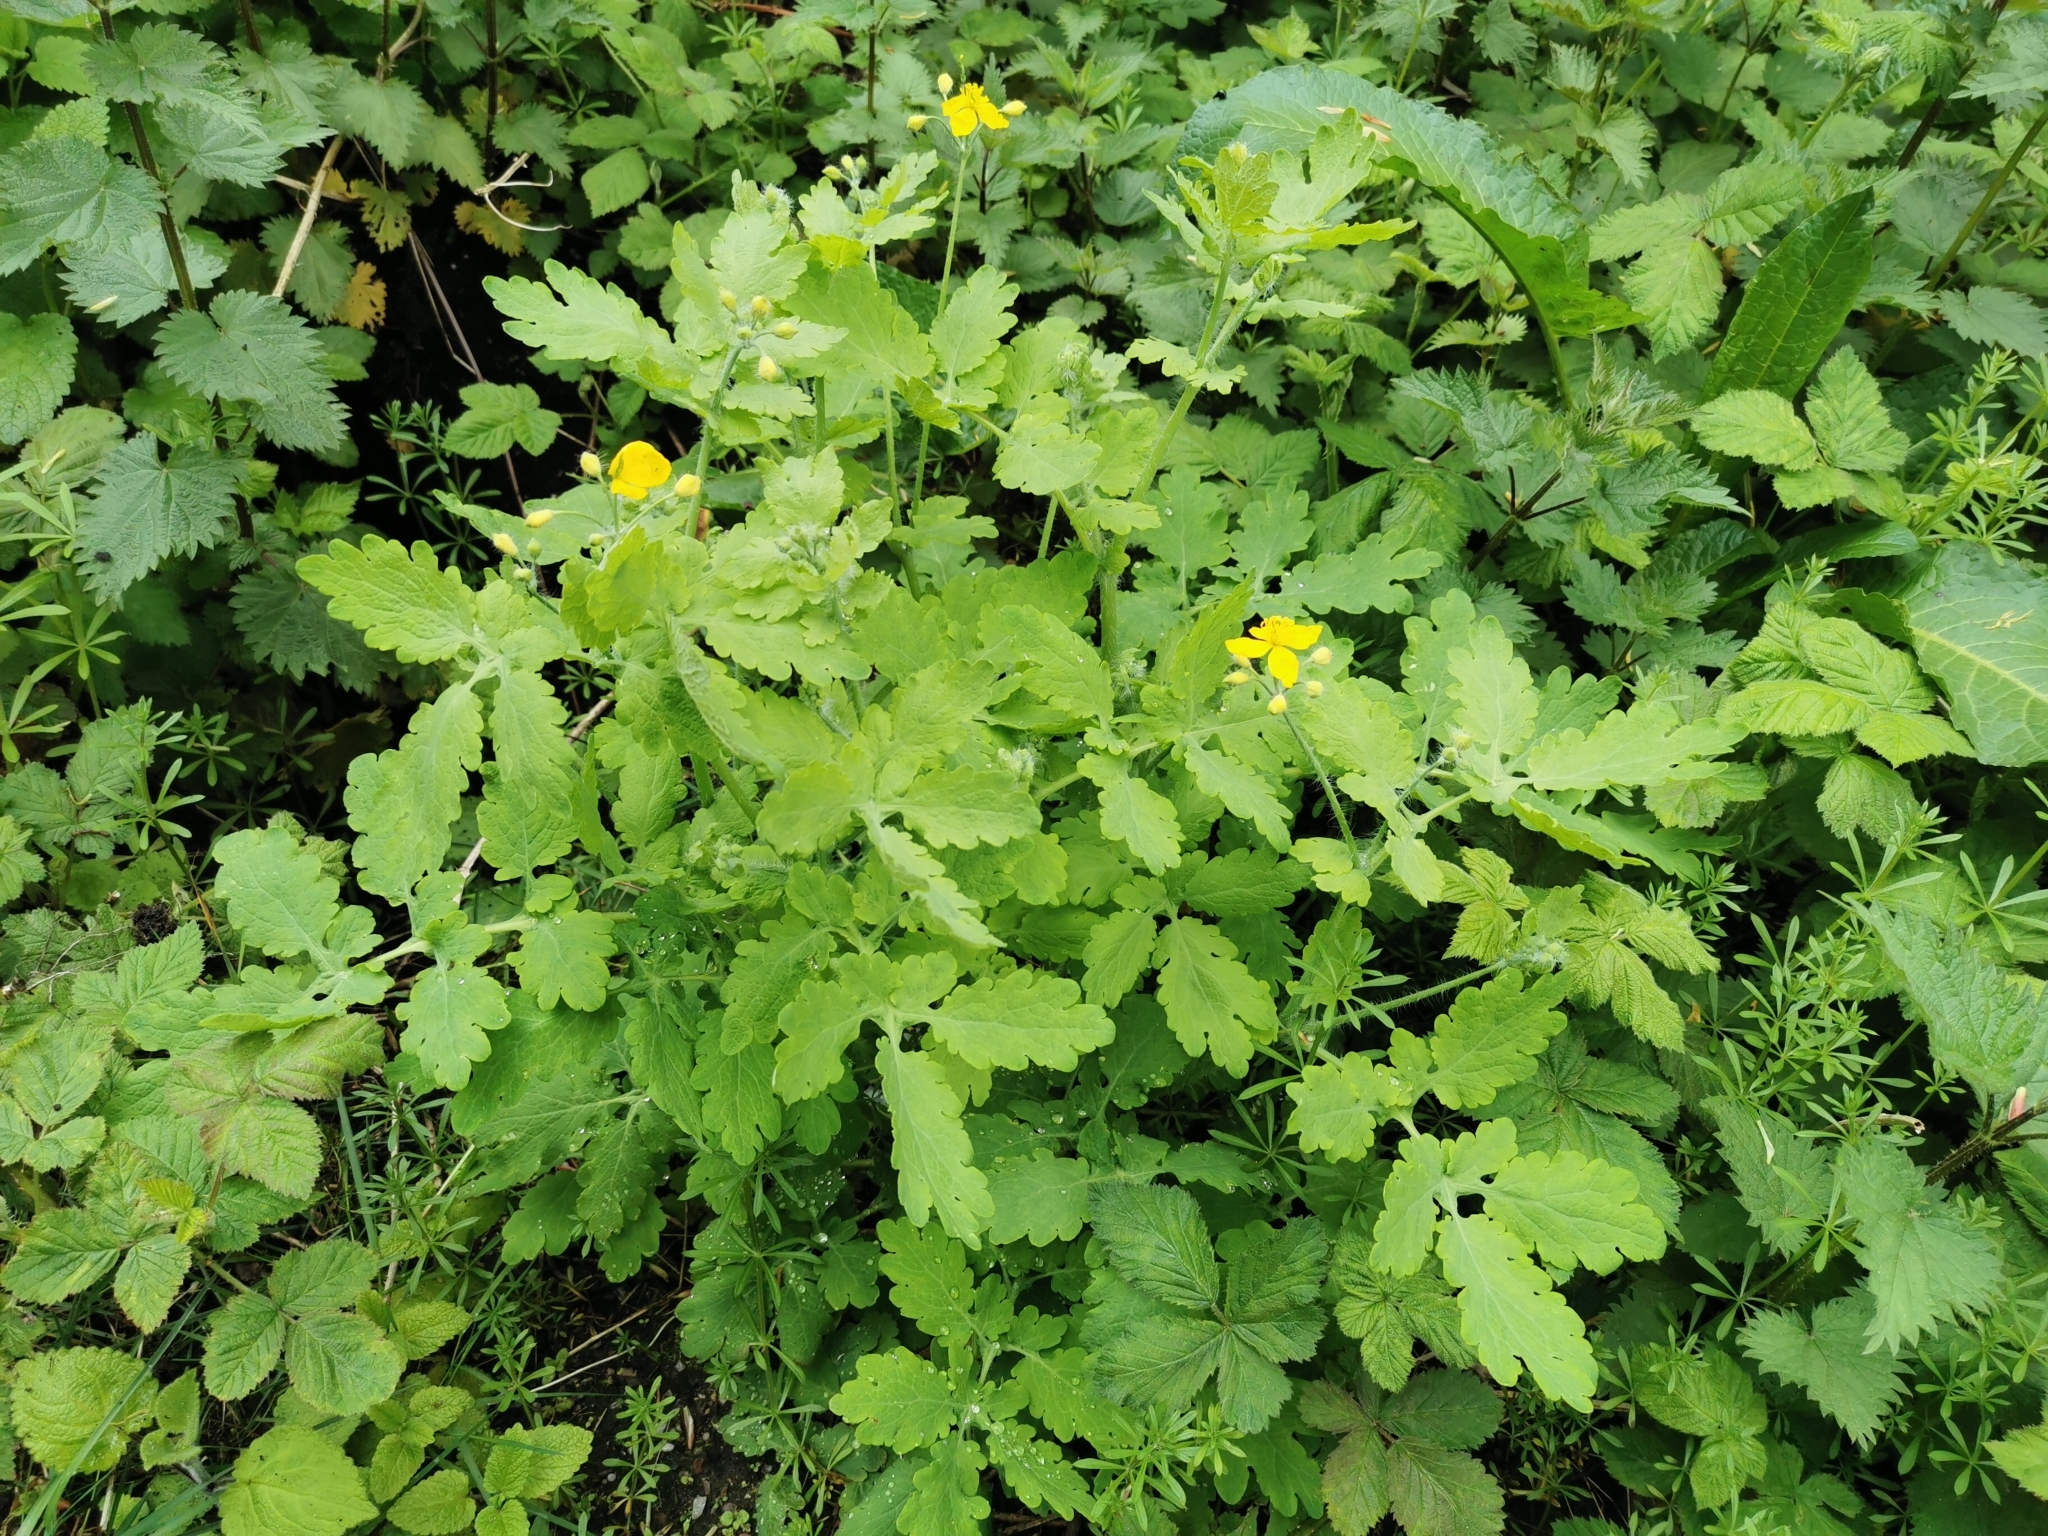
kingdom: Plantae
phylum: Tracheophyta
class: Magnoliopsida
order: Ranunculales
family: Papaveraceae
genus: Chelidonium
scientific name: Chelidonium majus
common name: Greater celandine
